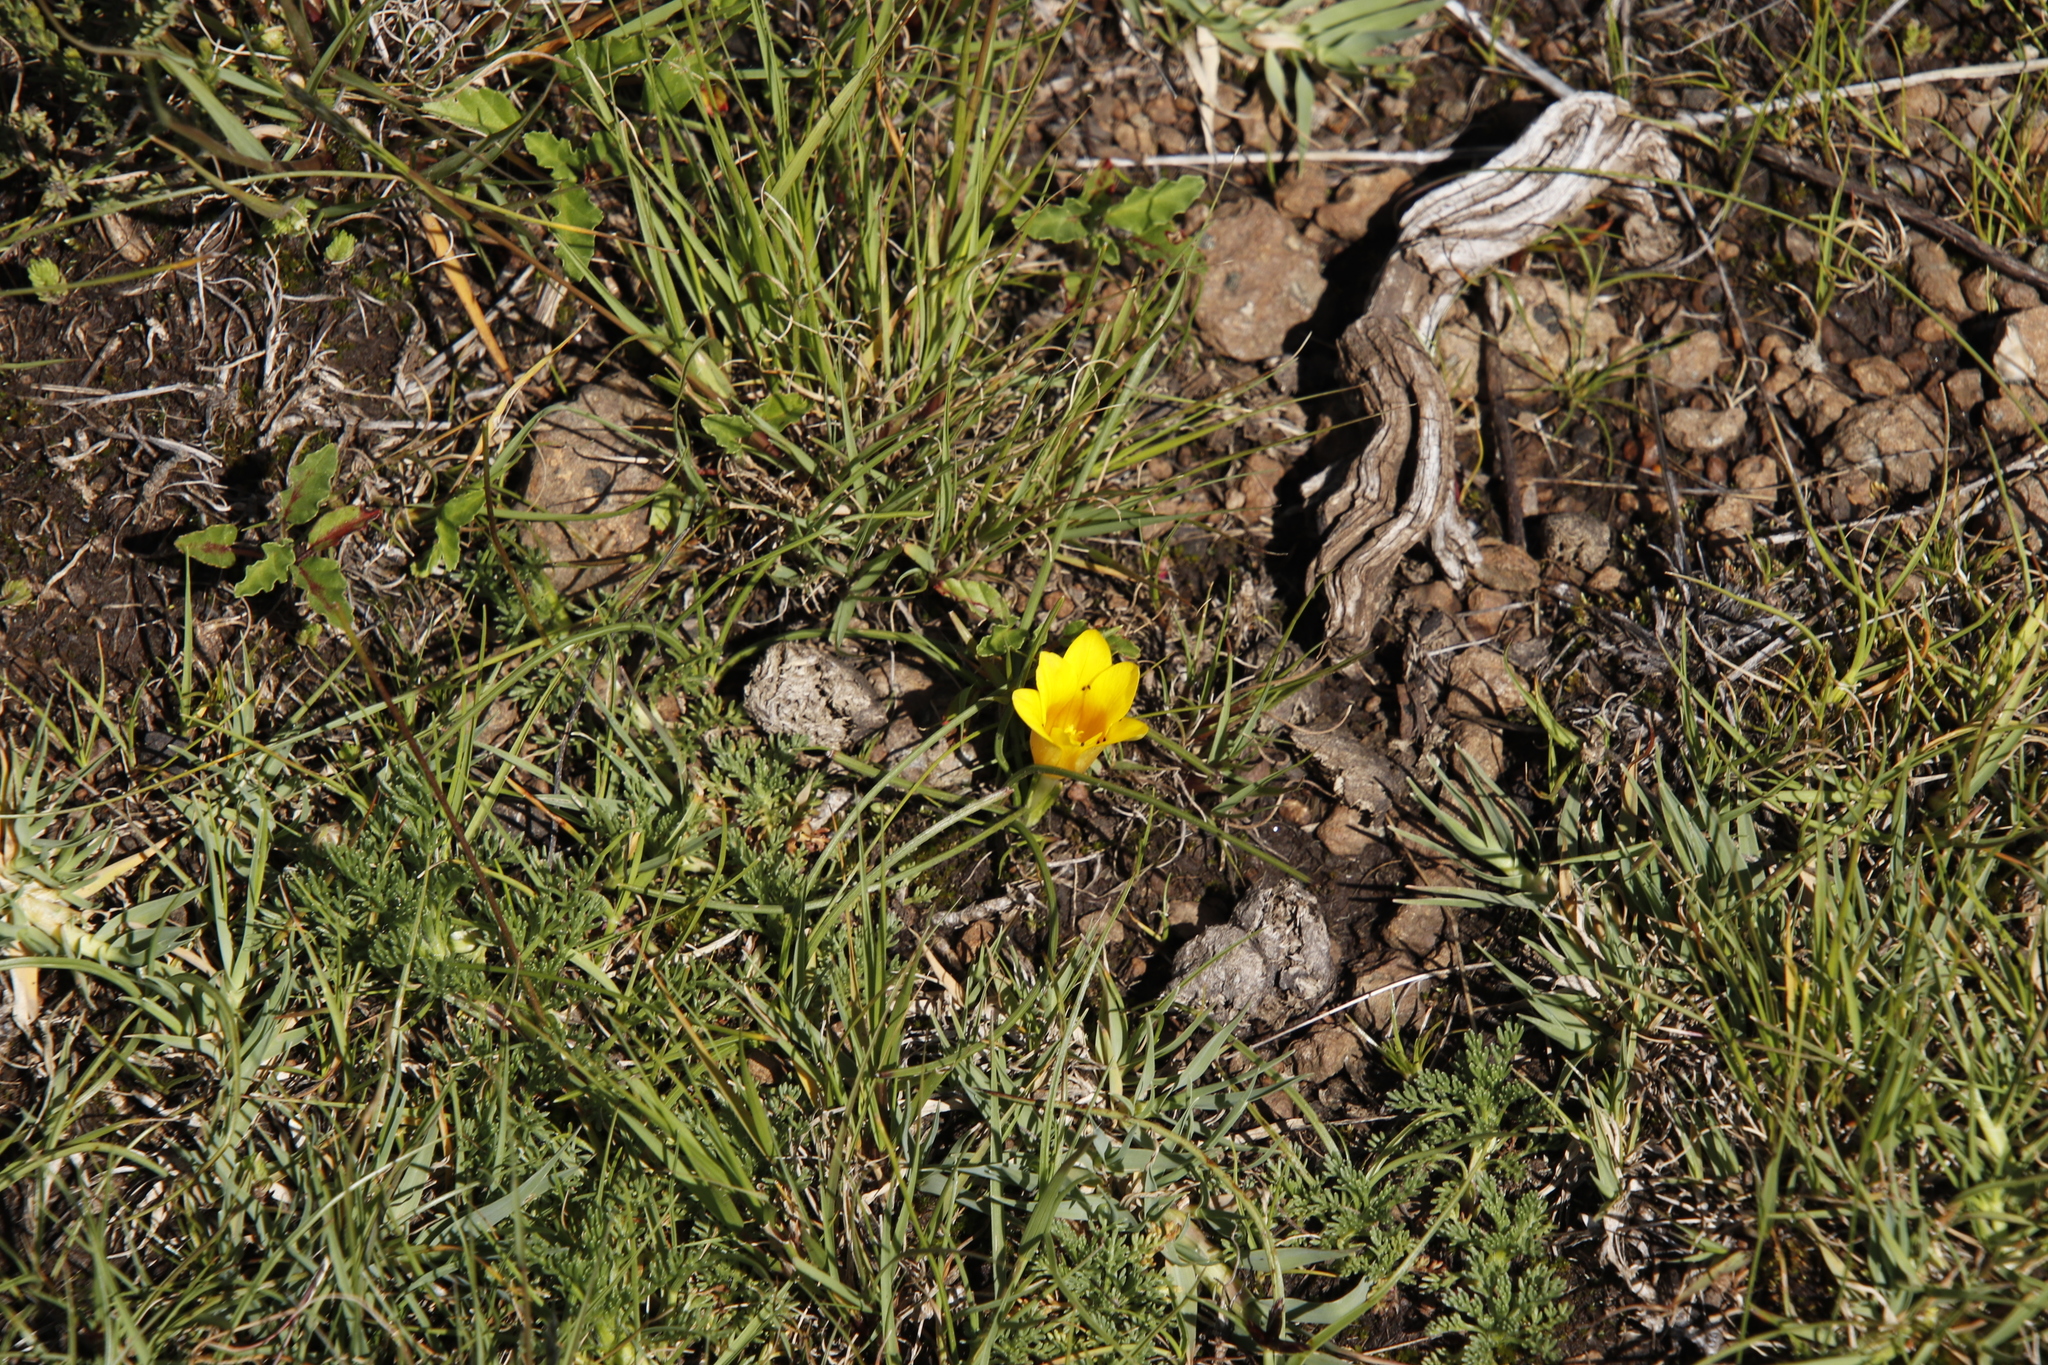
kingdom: Plantae
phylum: Tracheophyta
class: Liliopsida
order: Asparagales
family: Iridaceae
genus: Romulea
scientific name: Romulea macowanii
